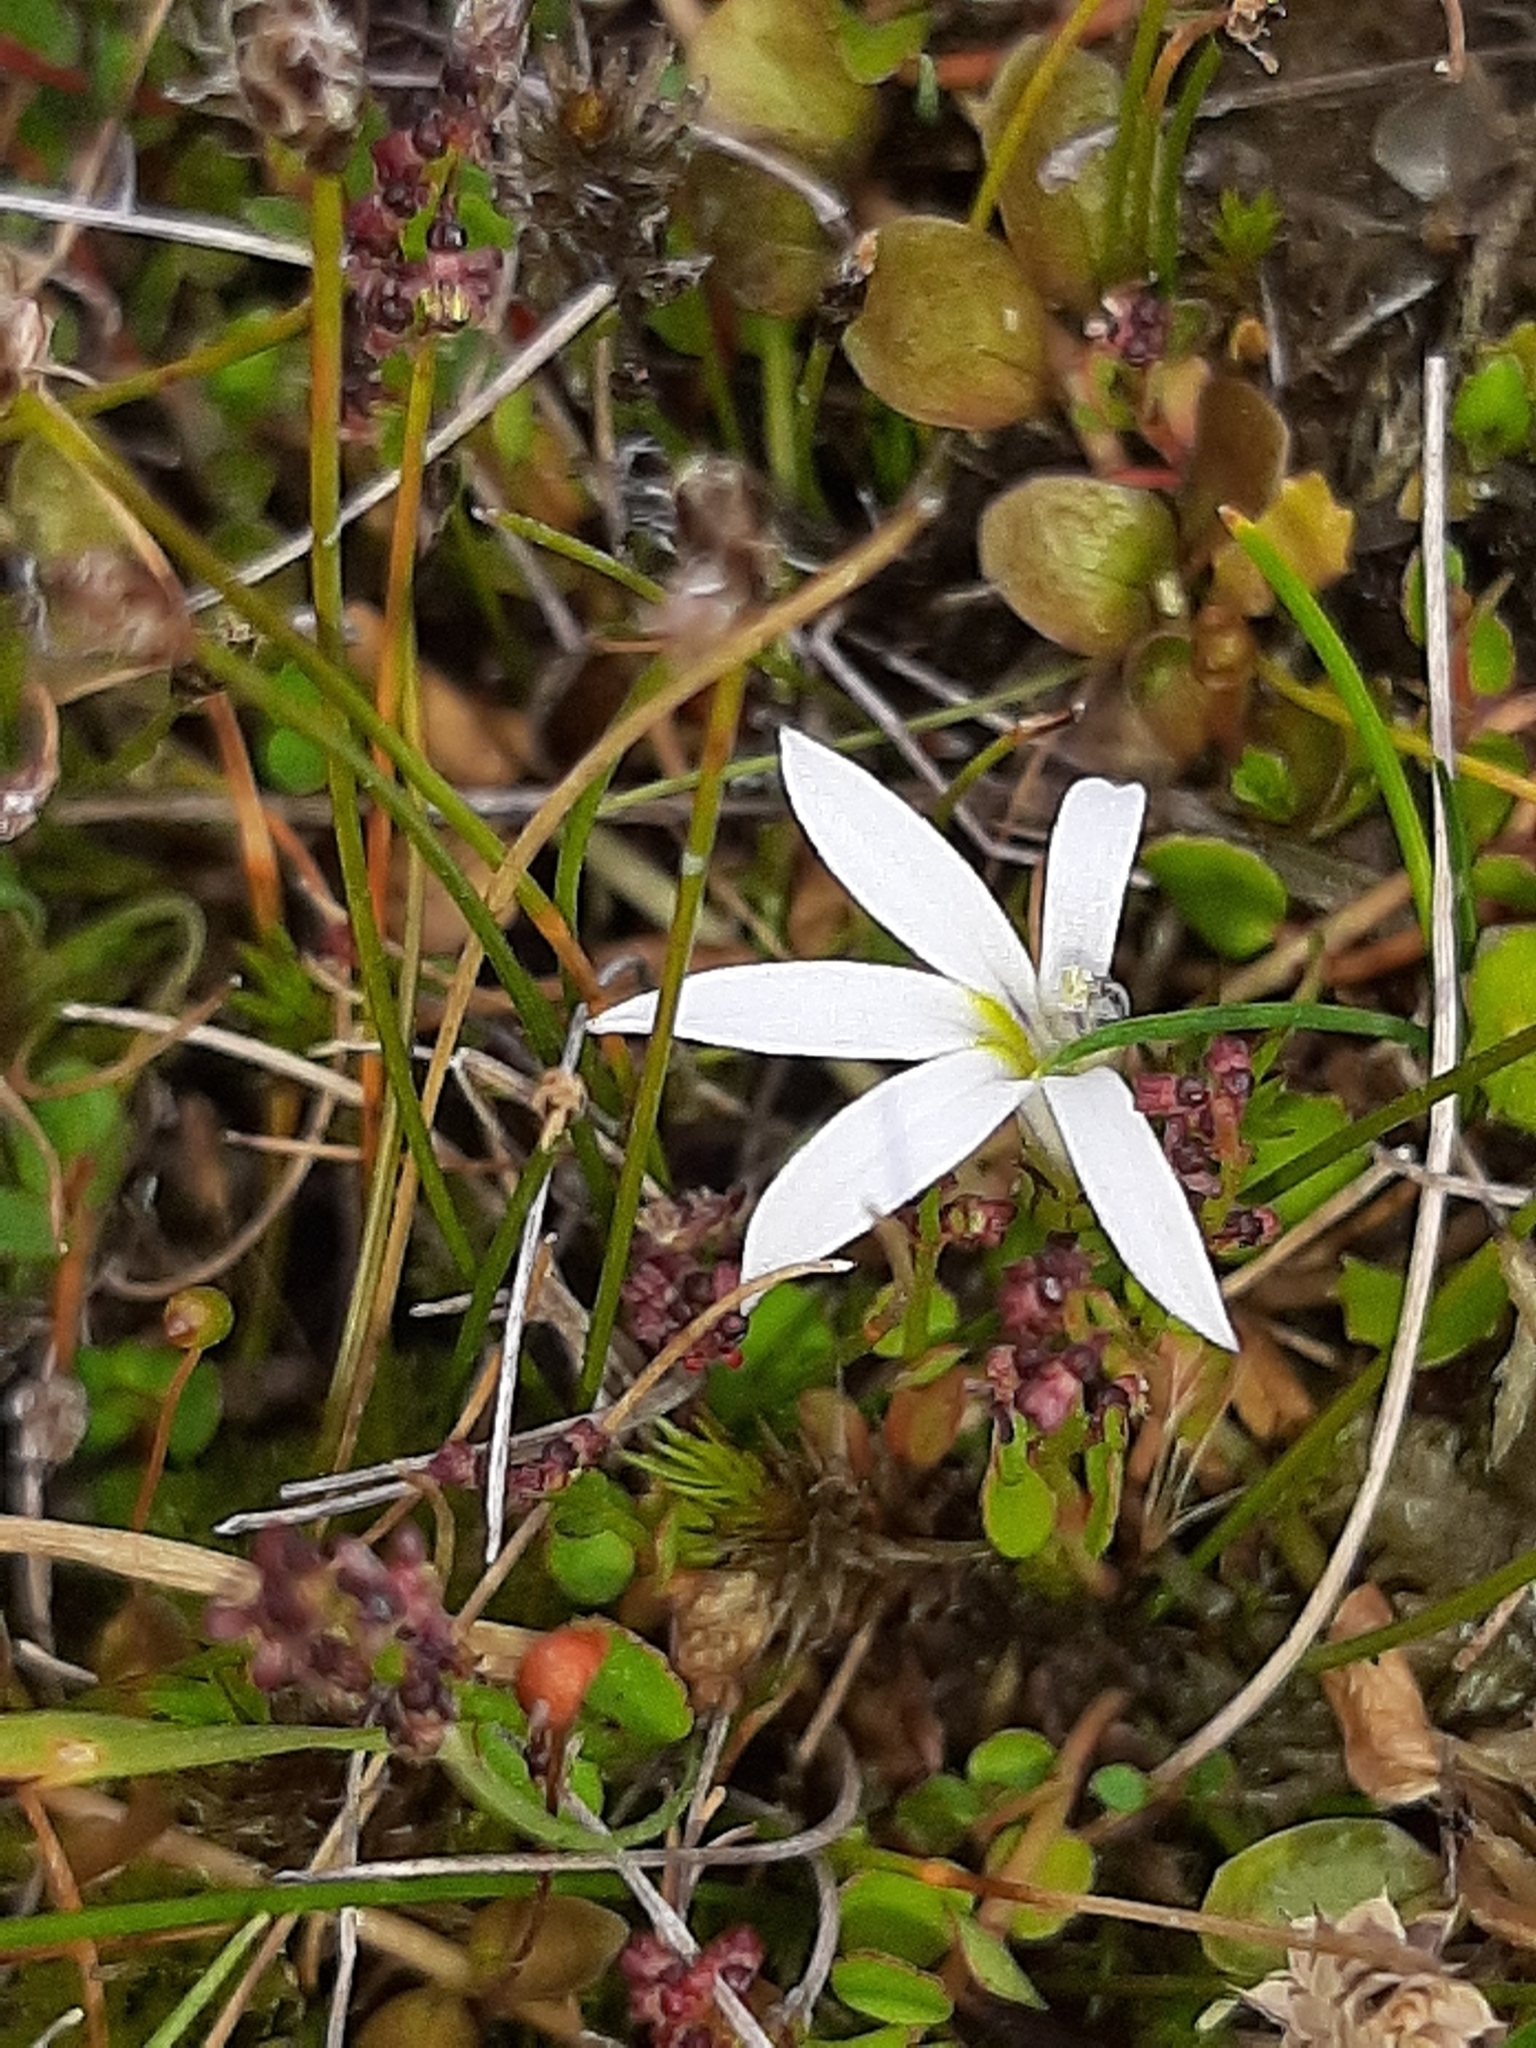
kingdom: Plantae
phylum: Tracheophyta
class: Magnoliopsida
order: Asterales
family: Campanulaceae
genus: Lobelia
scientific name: Lobelia angulata
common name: Lawn lobelia
